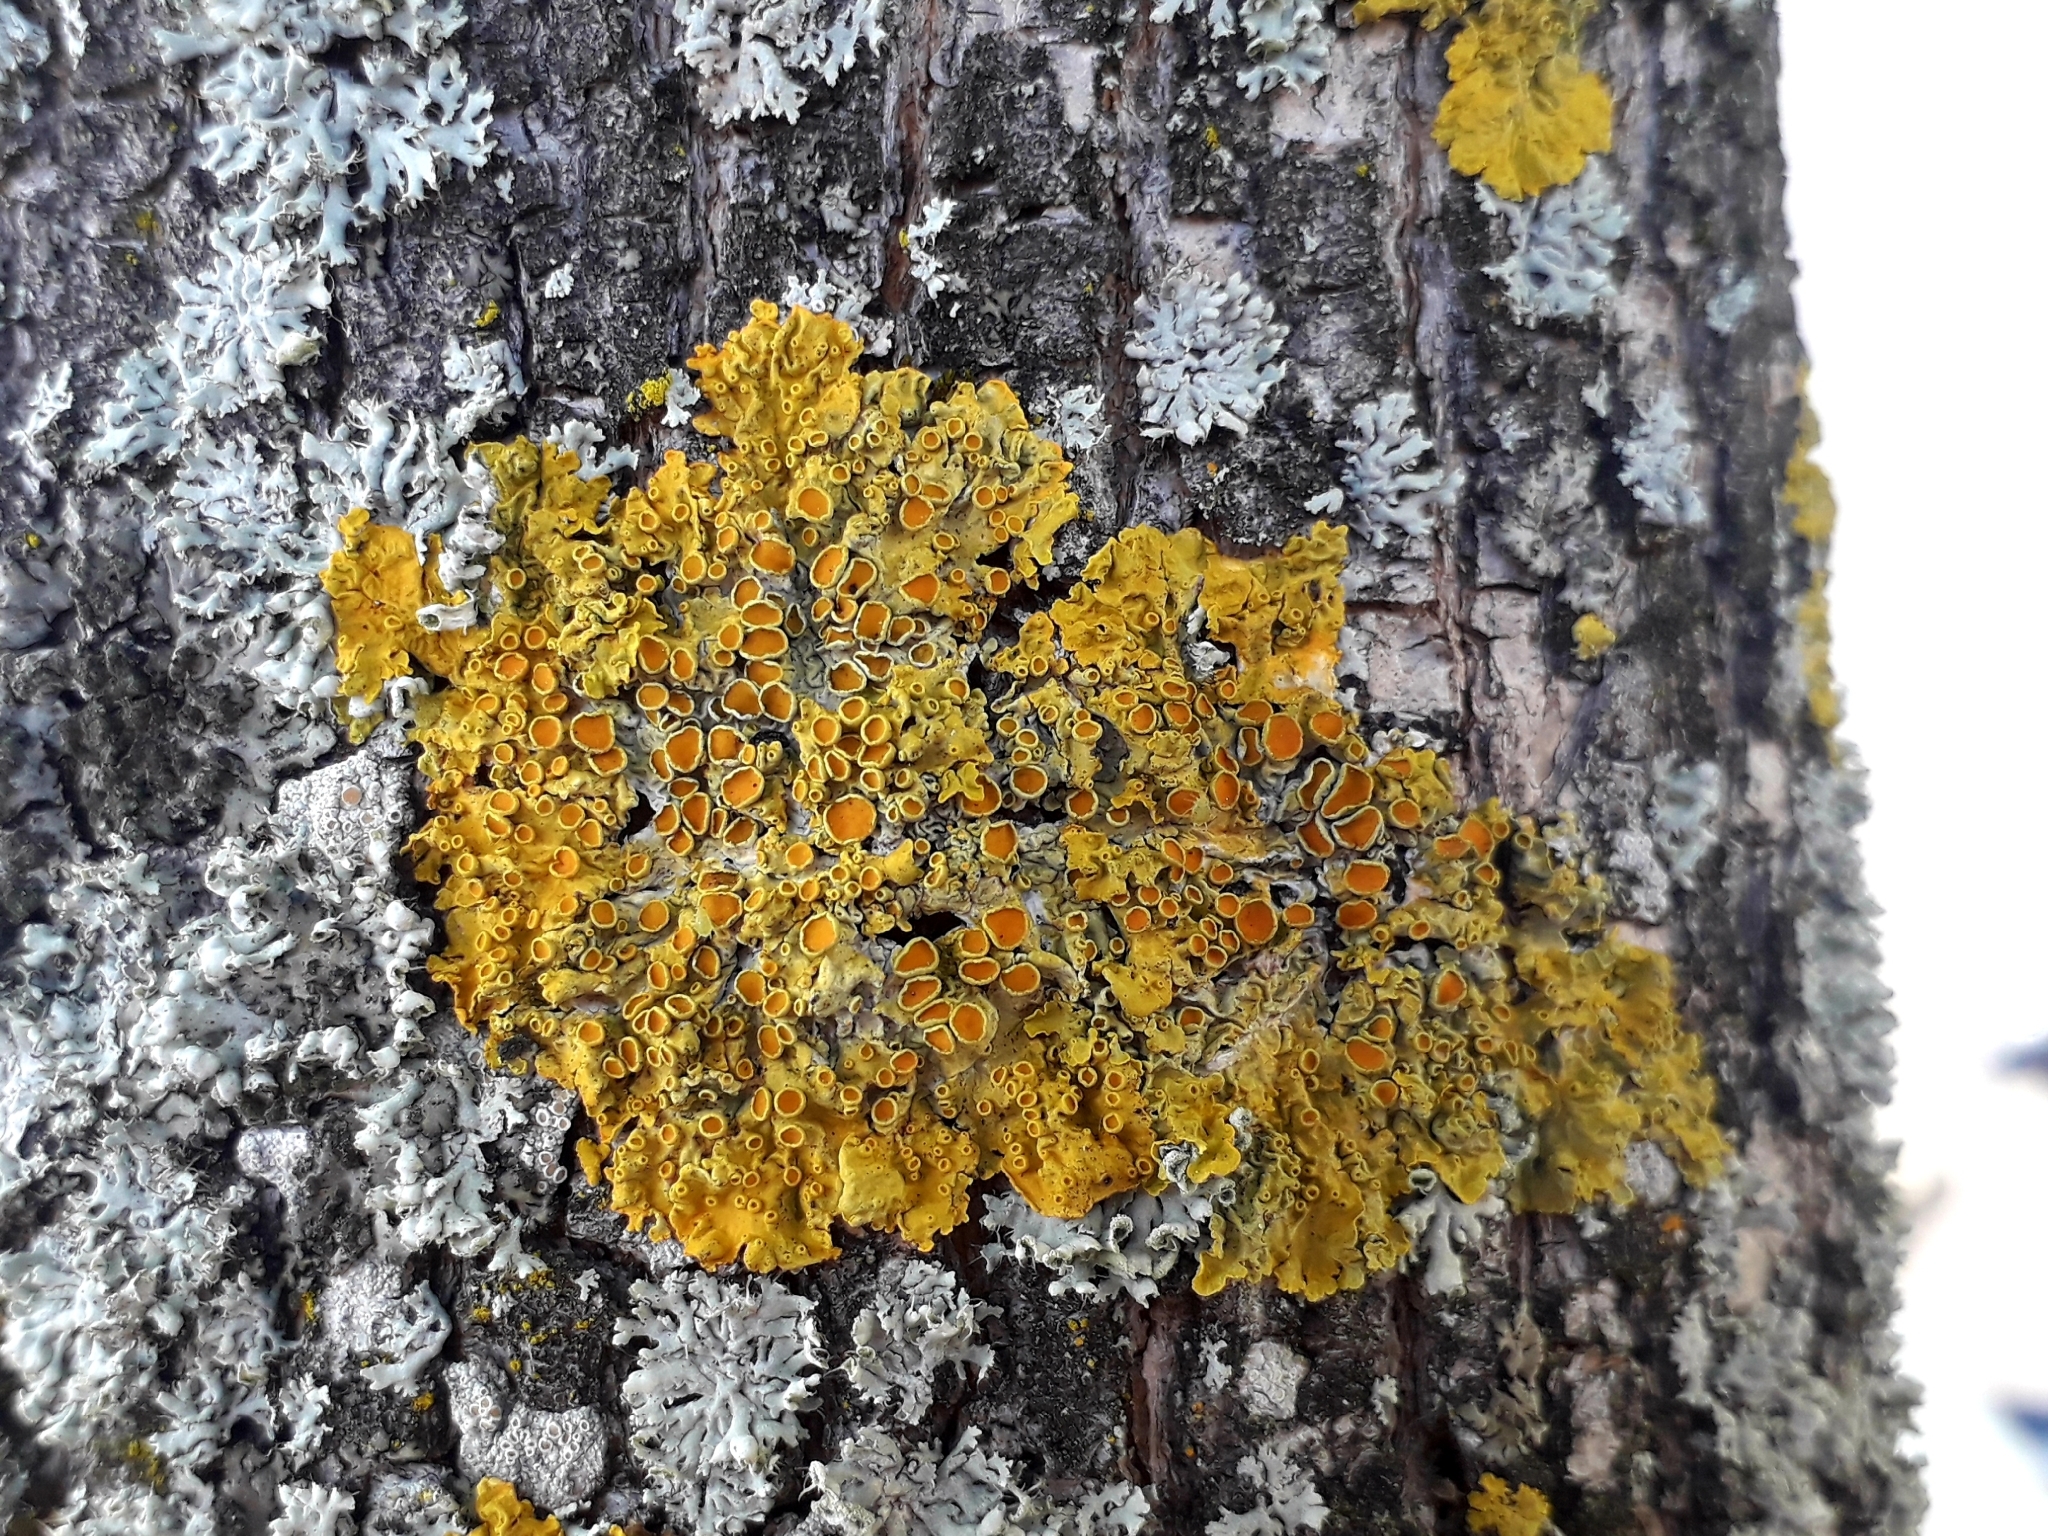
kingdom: Fungi
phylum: Ascomycota
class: Lecanoromycetes
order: Teloschistales
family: Teloschistaceae
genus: Xanthoria
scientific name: Xanthoria parietina
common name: Common orange lichen
